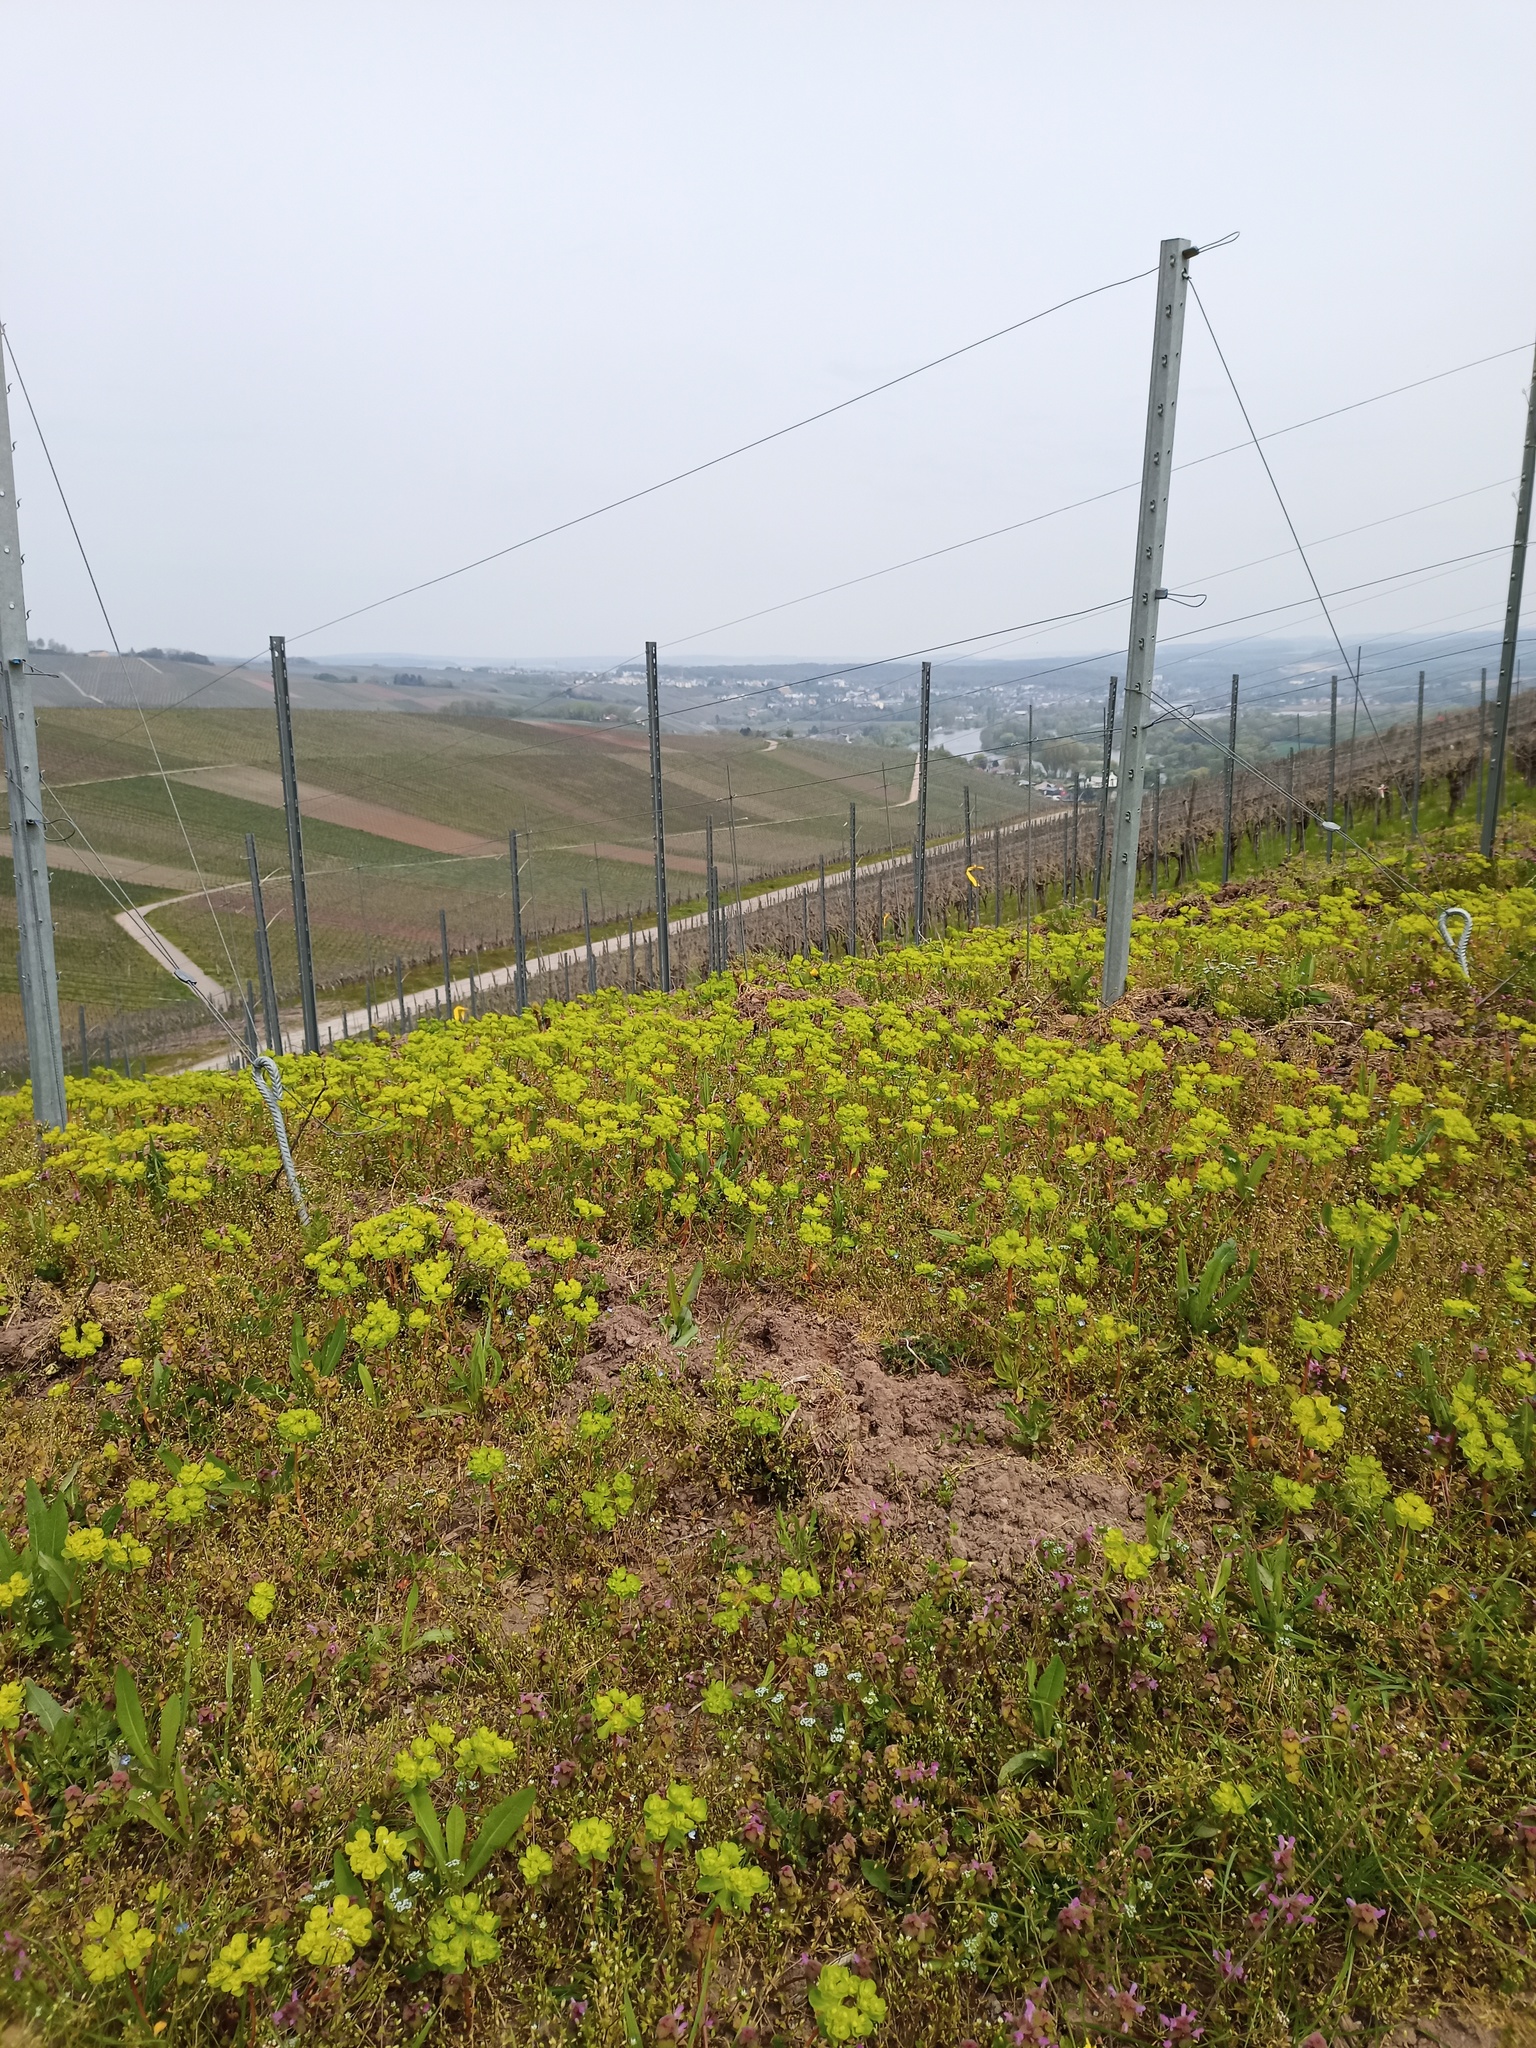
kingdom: Plantae
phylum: Tracheophyta
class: Magnoliopsida
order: Malpighiales
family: Euphorbiaceae
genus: Euphorbia
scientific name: Euphorbia cyparissias
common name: Cypress spurge
